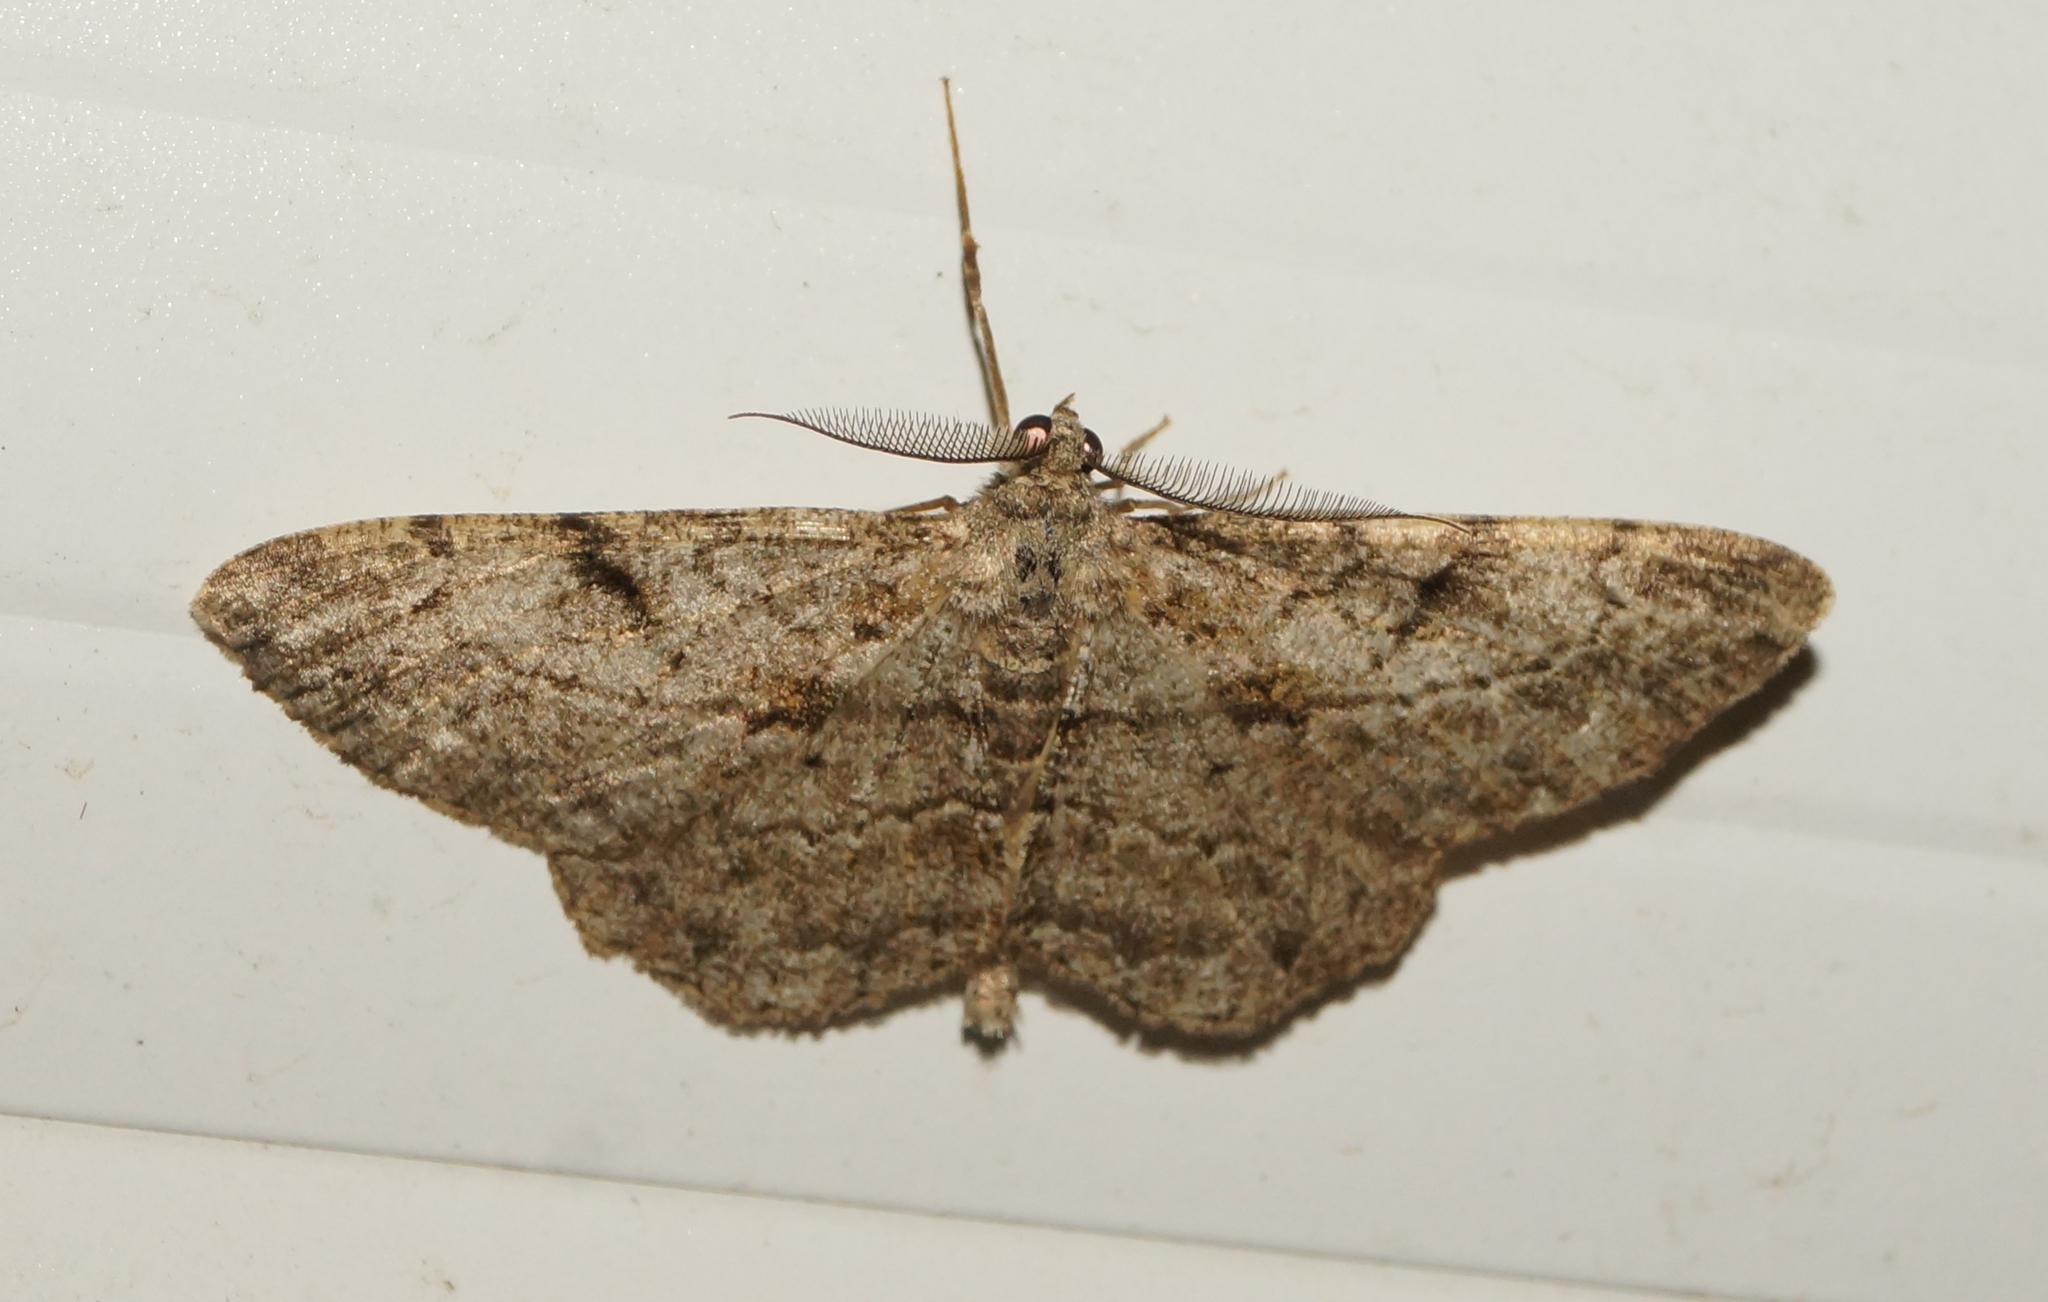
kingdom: Animalia
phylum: Arthropoda
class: Insecta
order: Lepidoptera
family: Geometridae
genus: Peribatodes
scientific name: Peribatodes rhomboidaria
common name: Willow beauty
